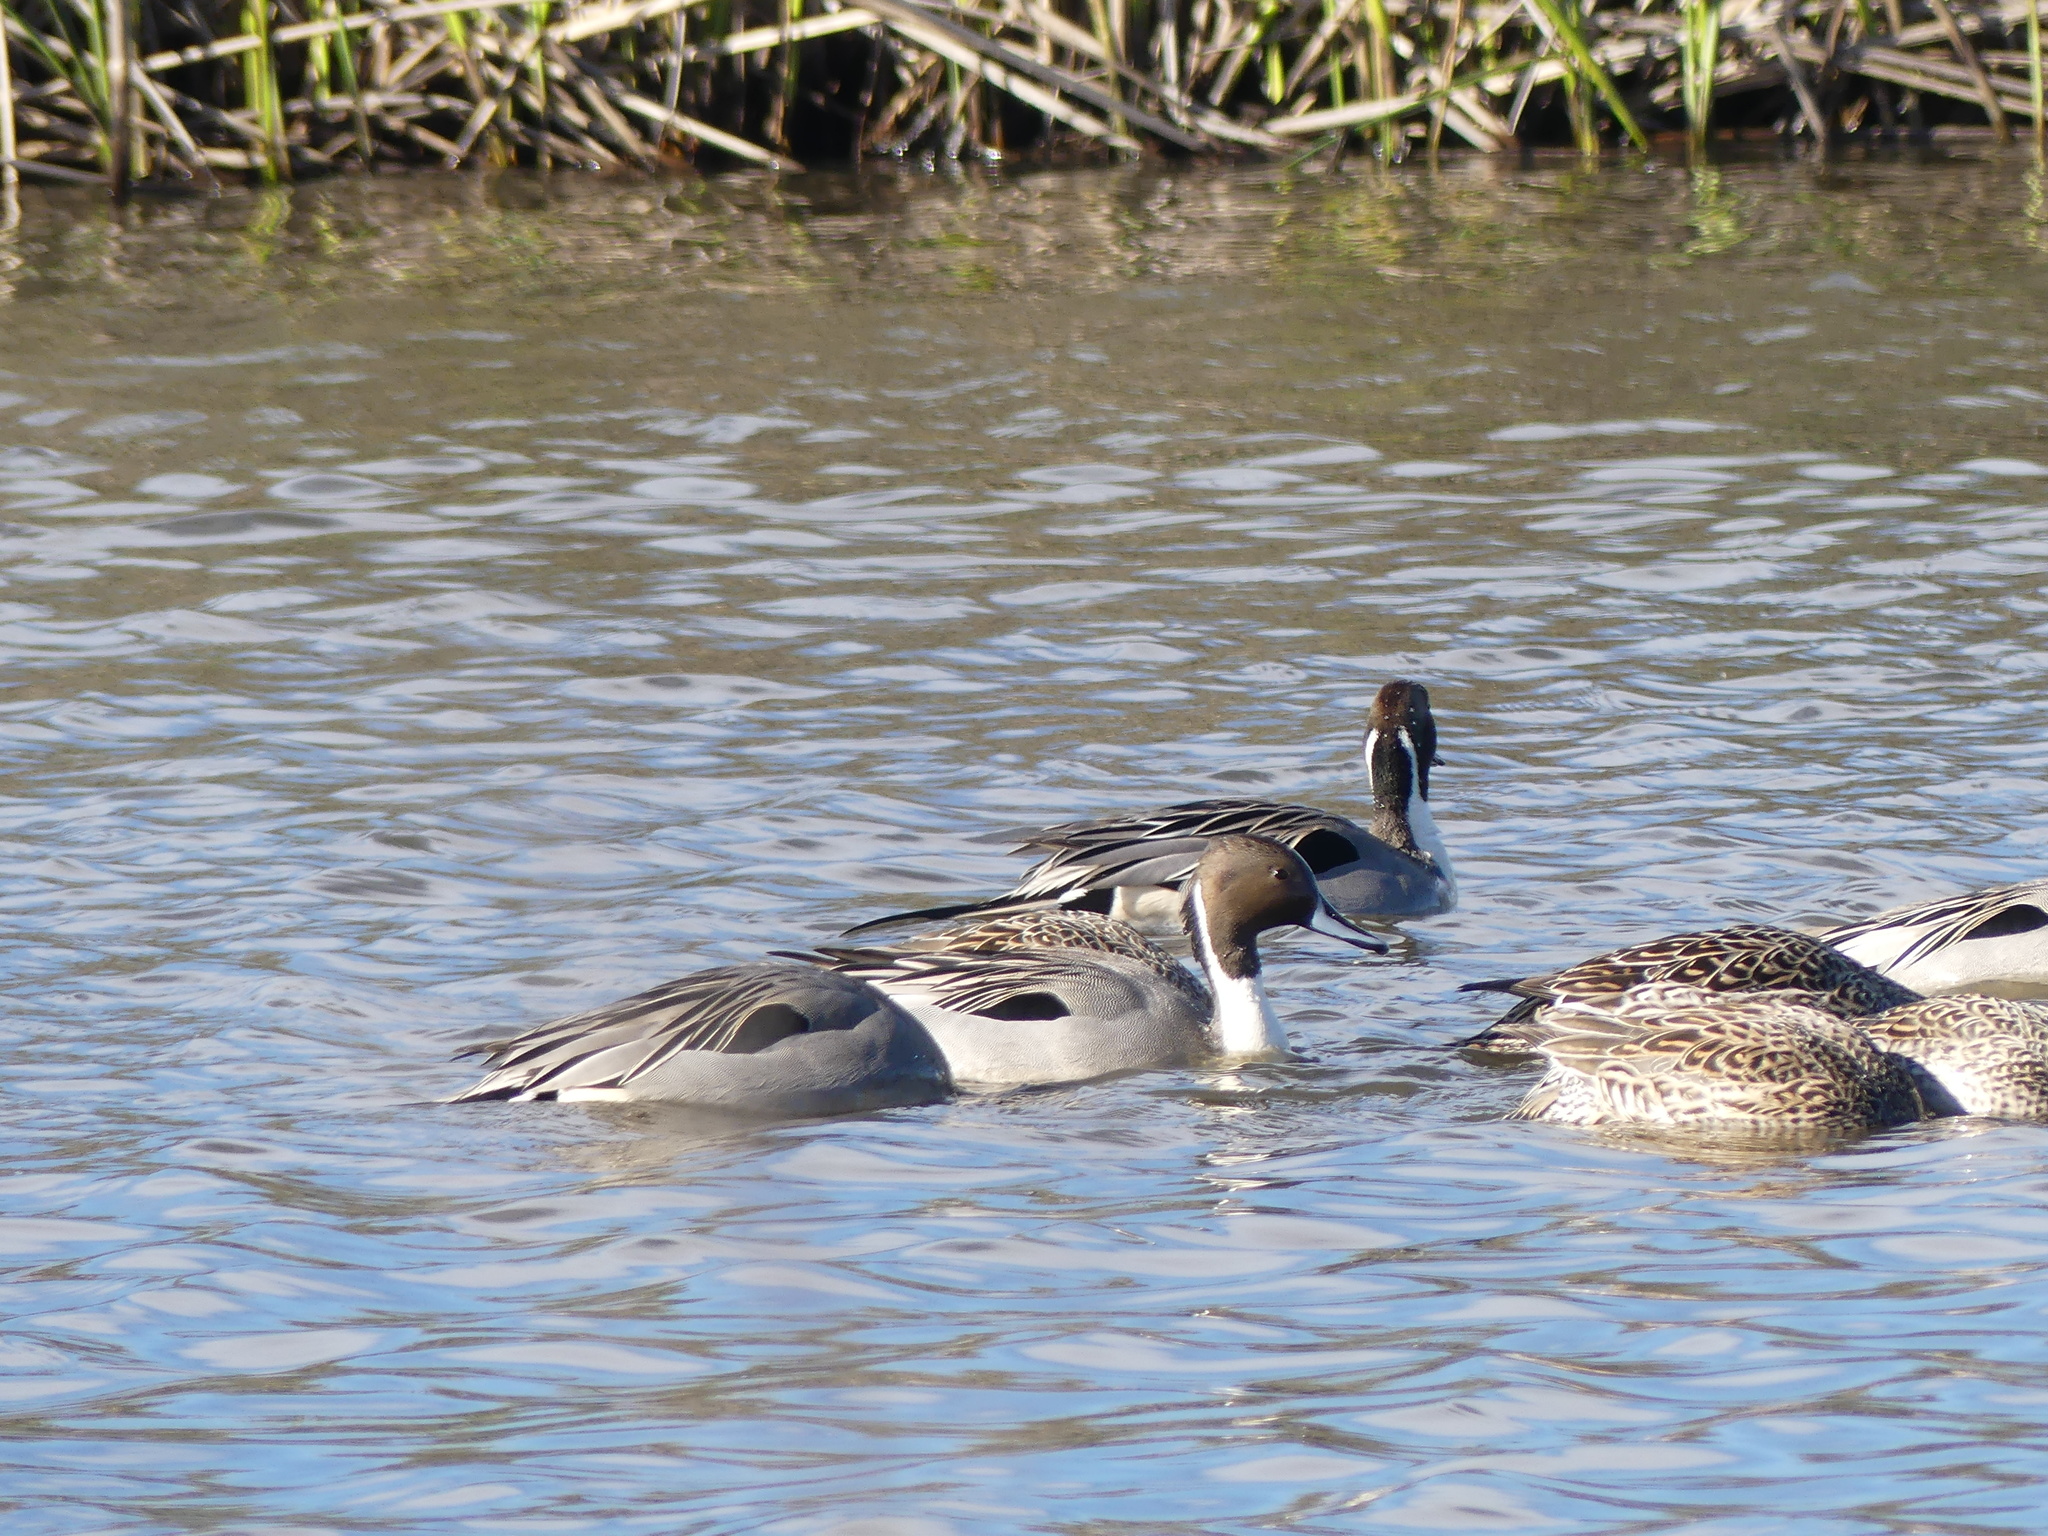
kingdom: Animalia
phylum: Chordata
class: Aves
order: Anseriformes
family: Anatidae
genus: Anas
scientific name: Anas acuta
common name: Northern pintail
